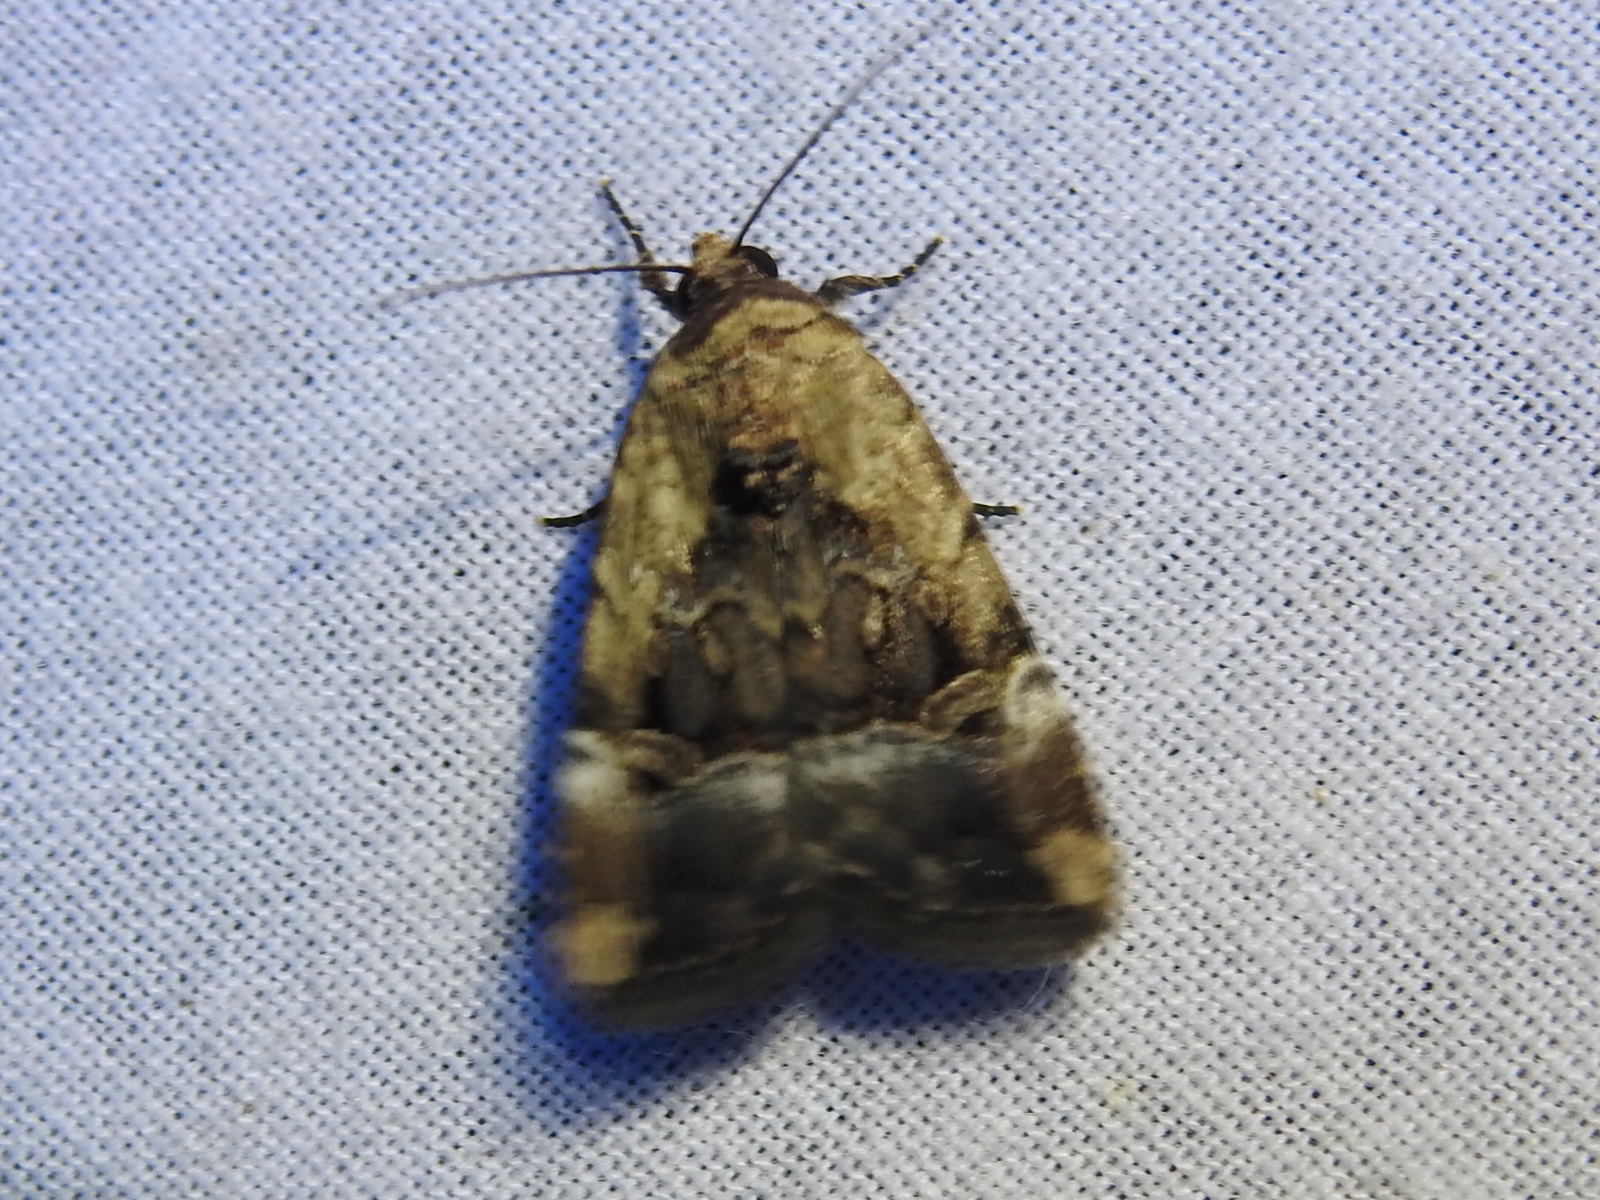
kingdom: Animalia
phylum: Arthropoda
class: Insecta
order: Lepidoptera
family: Noctuidae
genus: Elaphria
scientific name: Elaphria chalcedonia
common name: Chalcedony midget
